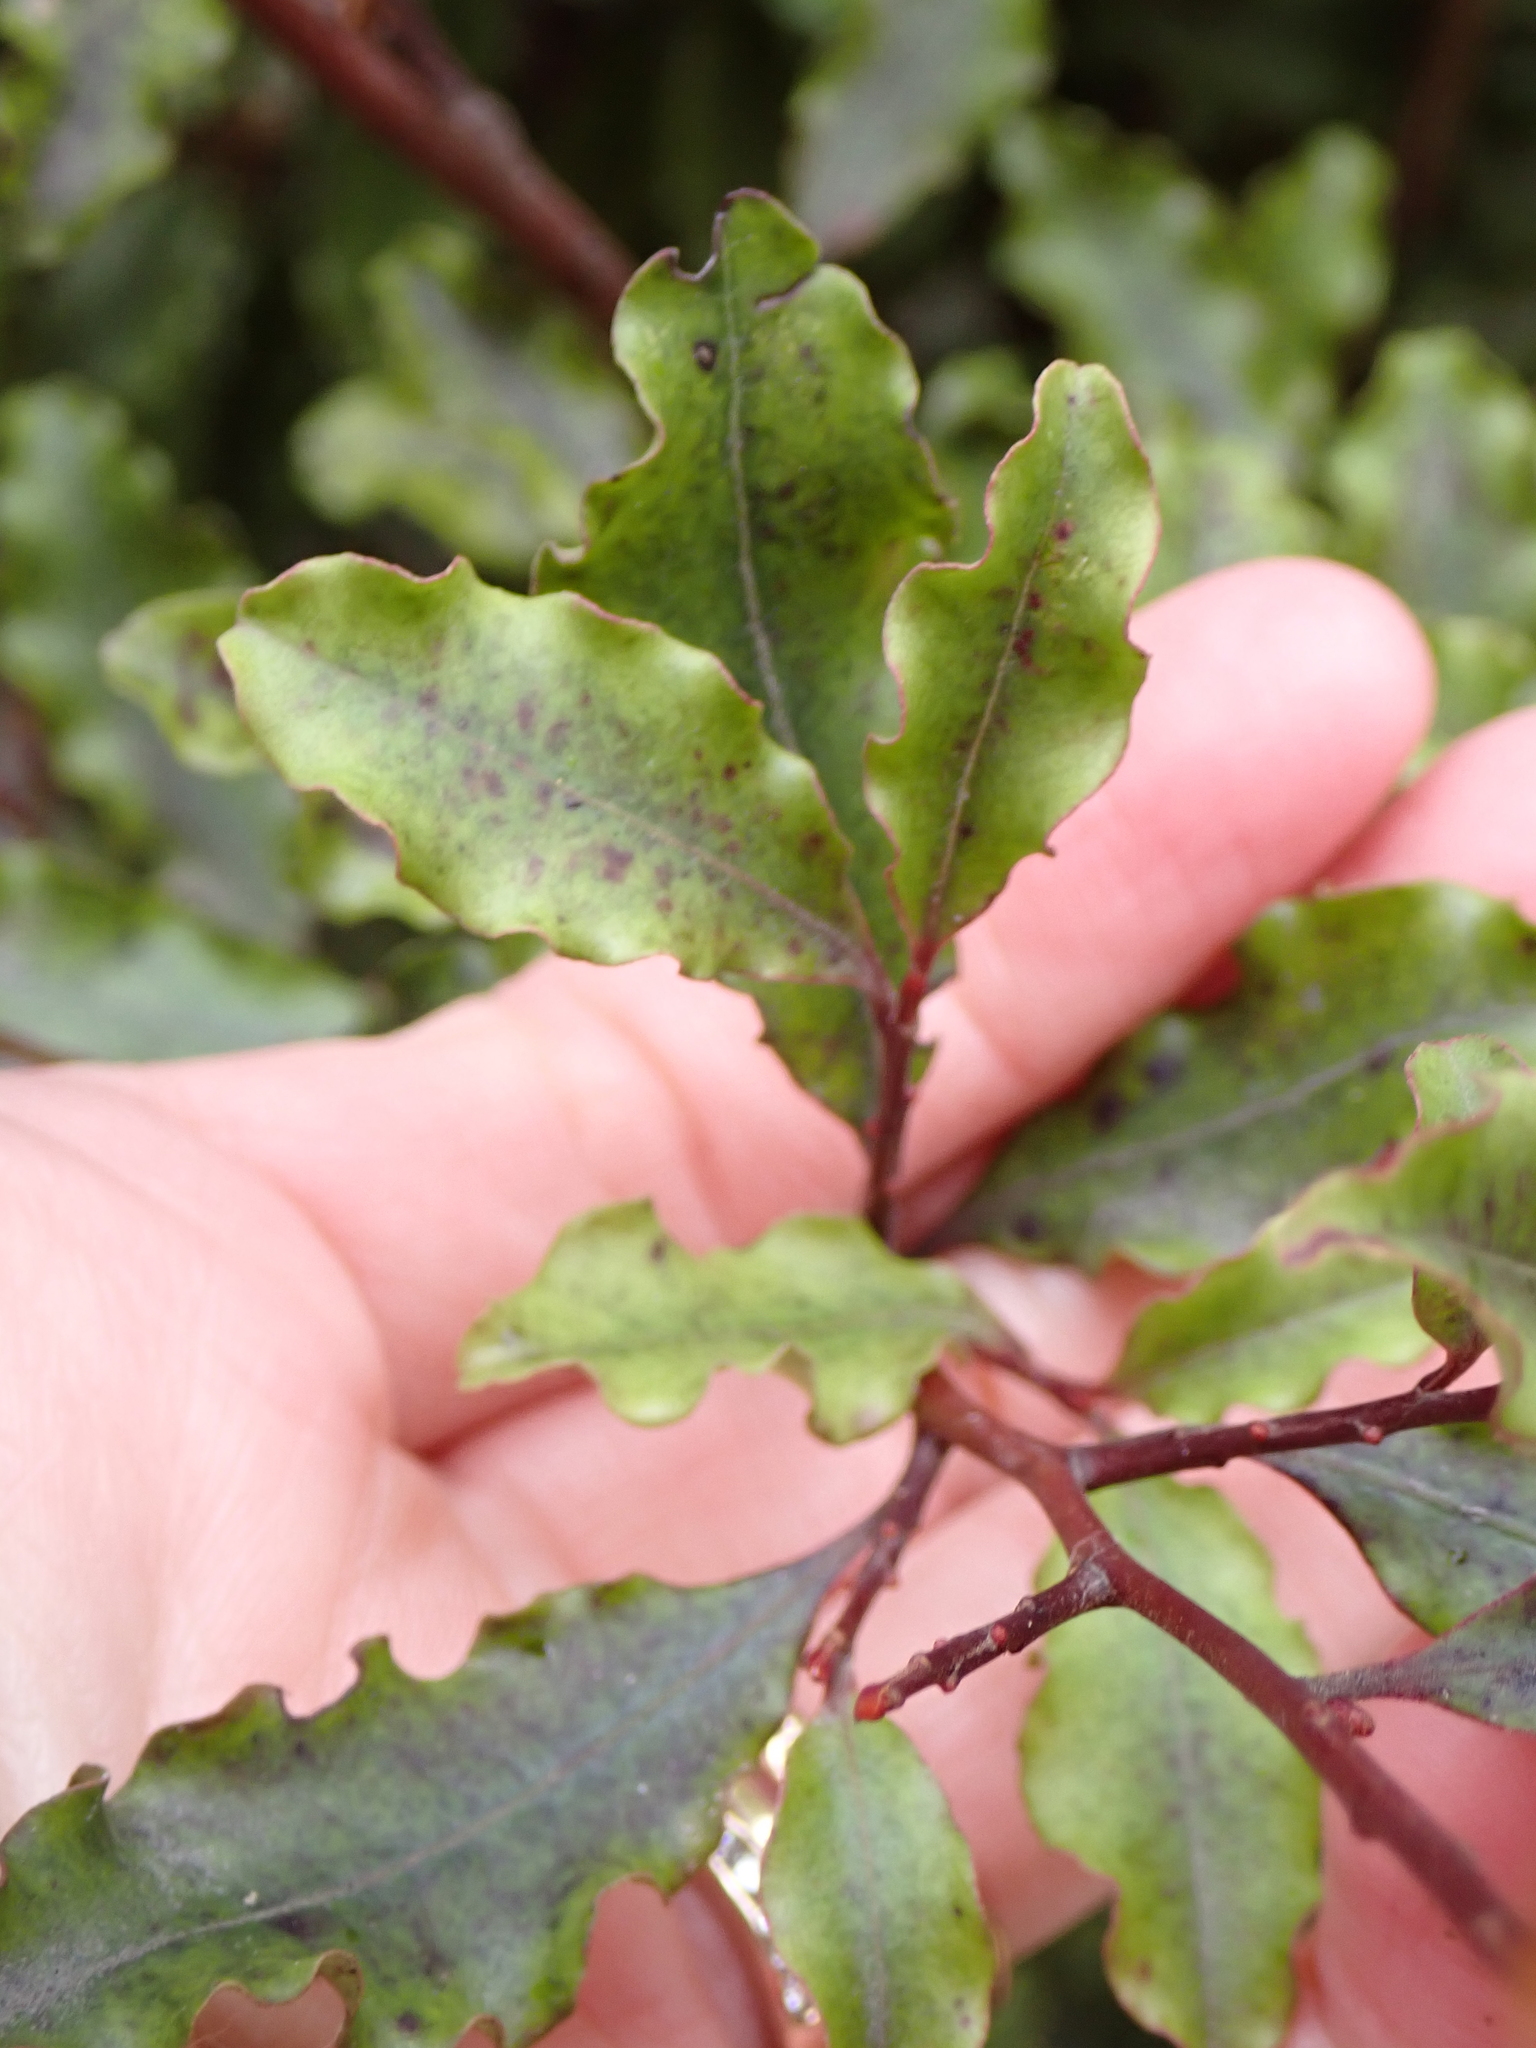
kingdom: Plantae
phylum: Tracheophyta
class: Magnoliopsida
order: Ericales
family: Primulaceae
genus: Myrsine
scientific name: Myrsine australis
